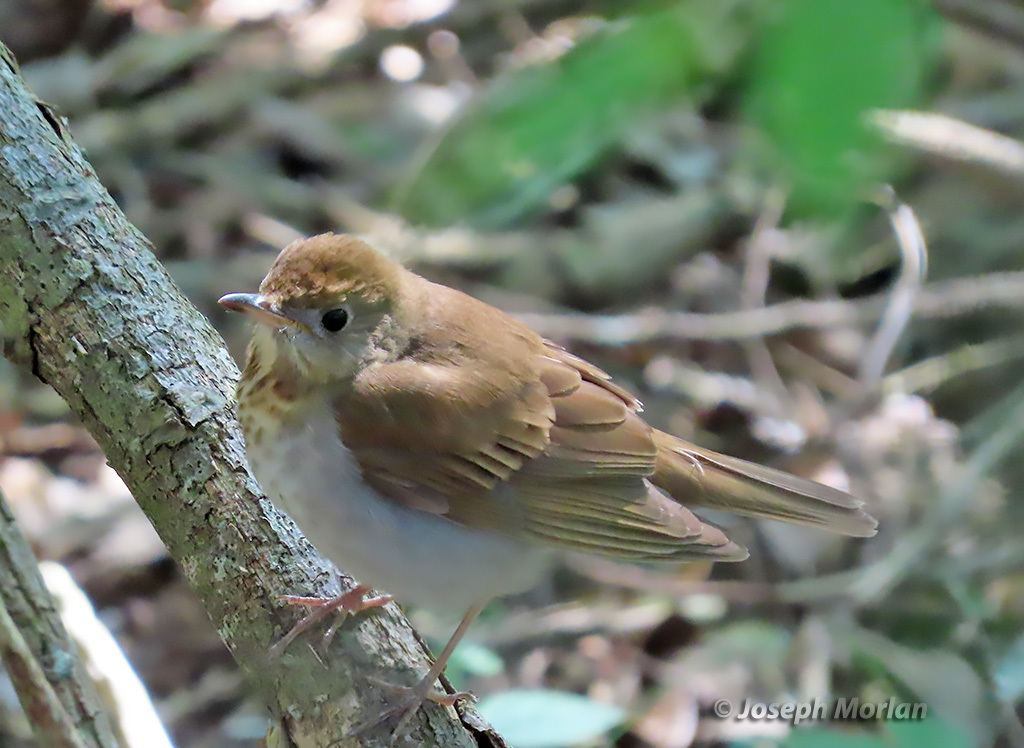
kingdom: Animalia
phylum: Chordata
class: Aves
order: Passeriformes
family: Turdidae
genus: Catharus
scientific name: Catharus fuscescens
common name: Veery
